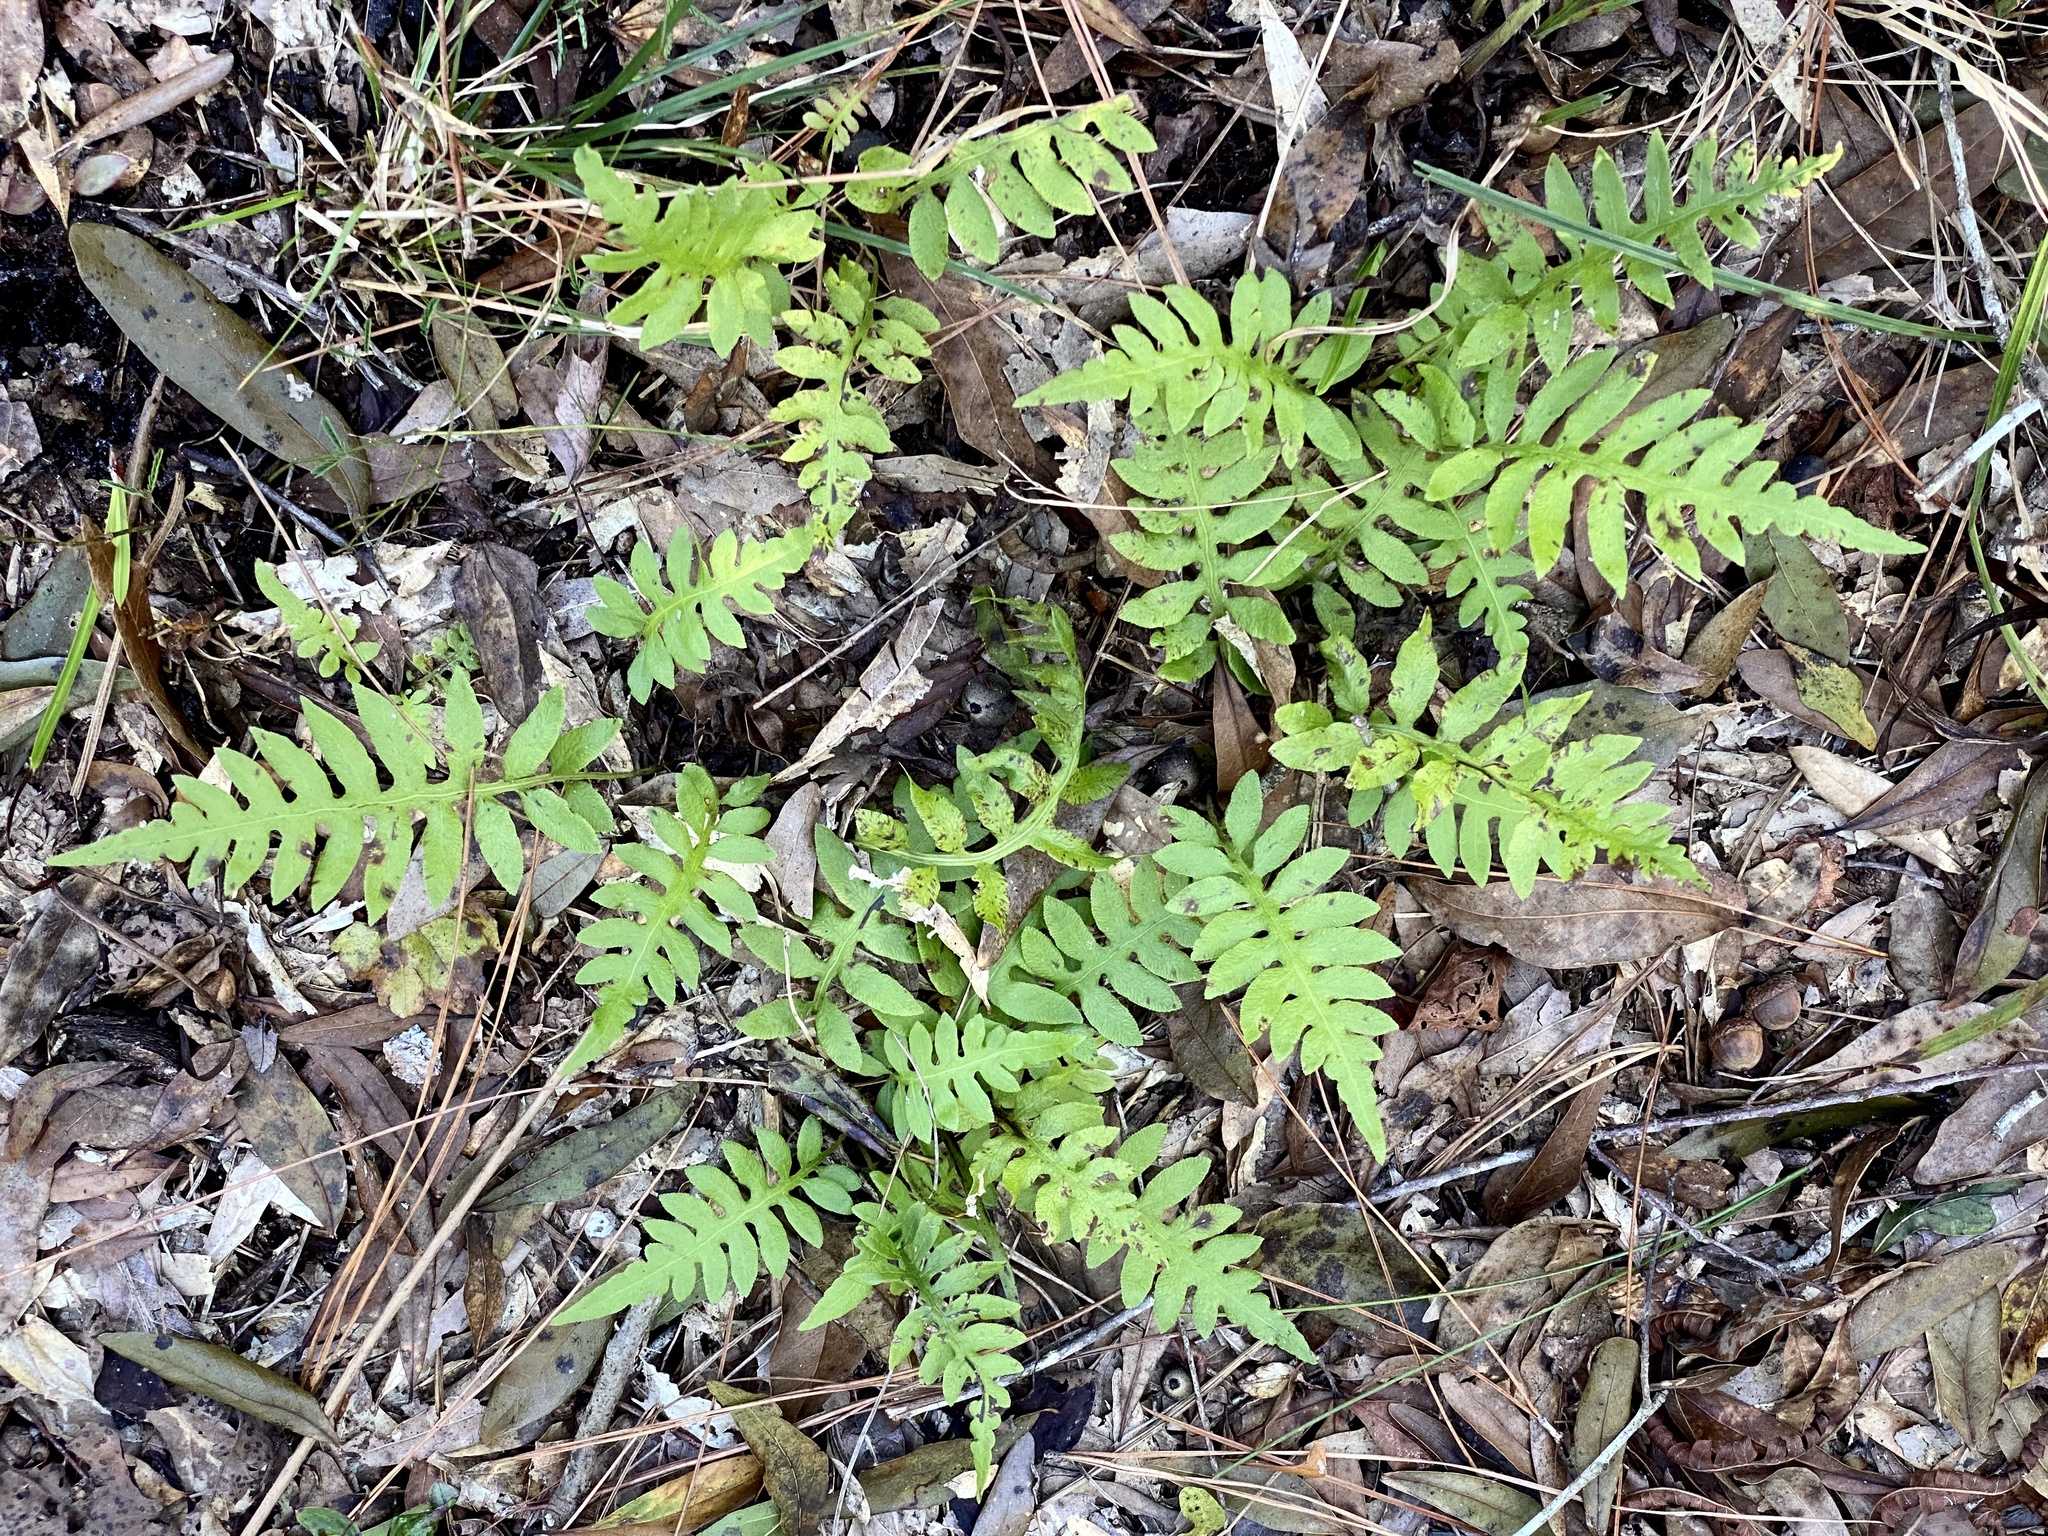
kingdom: Plantae
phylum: Tracheophyta
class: Polypodiopsida
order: Polypodiales
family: Blechnaceae
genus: Lorinseria
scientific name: Lorinseria areolata
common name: Dwarf chain fern
